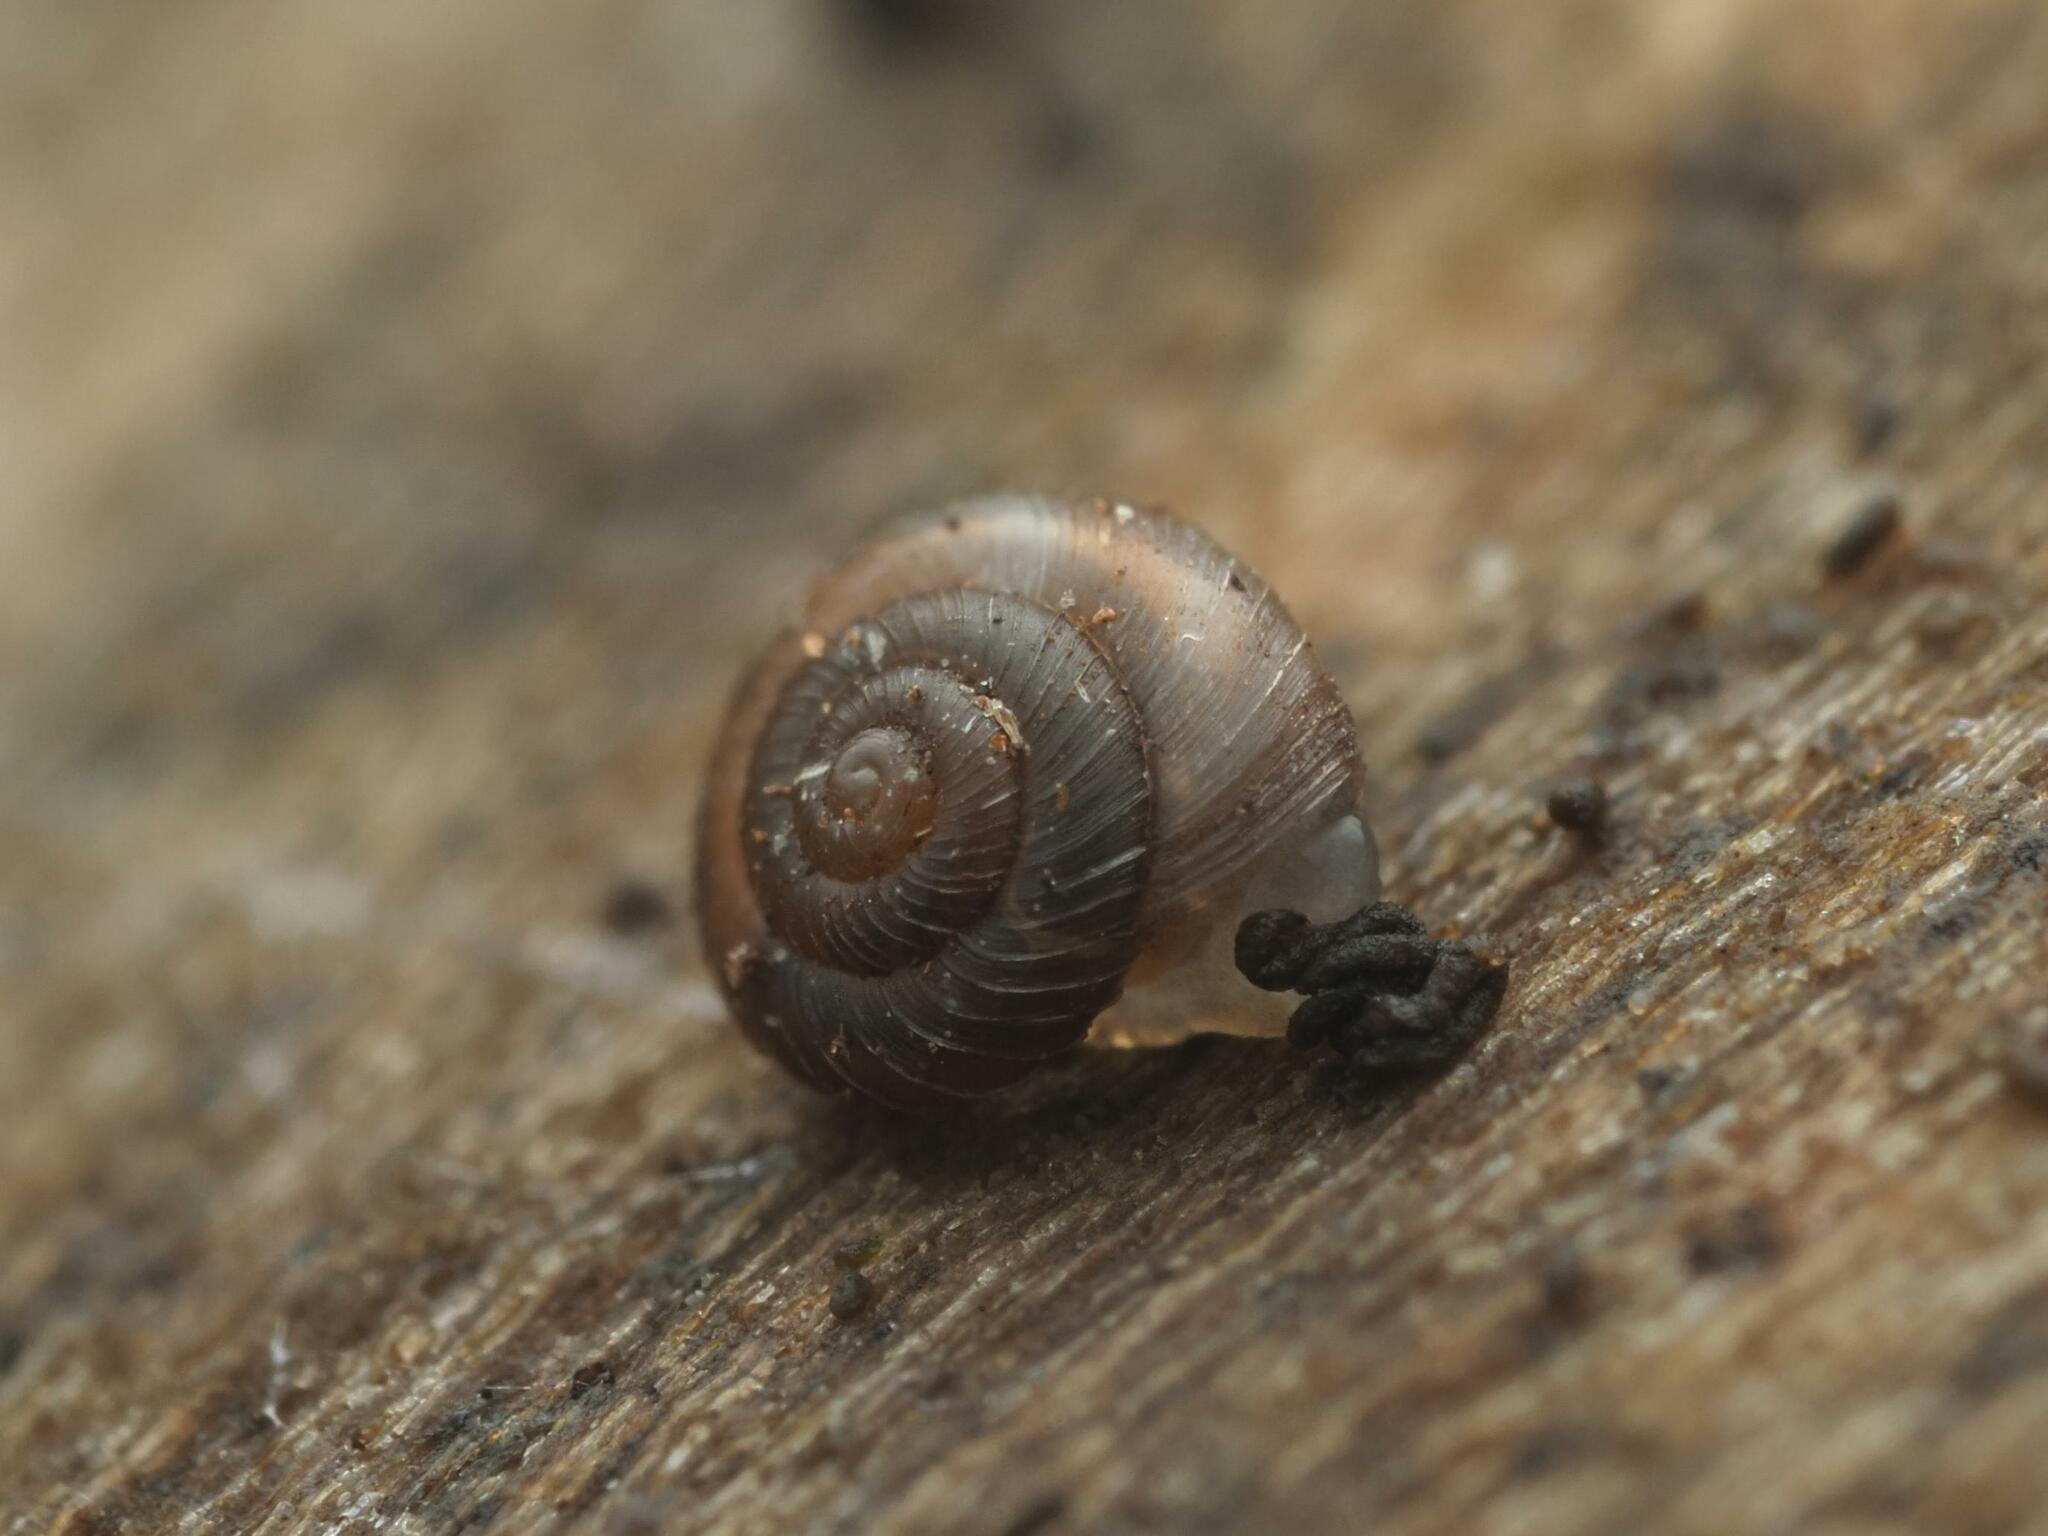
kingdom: Animalia
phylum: Mollusca
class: Gastropoda
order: Stylommatophora
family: Punctidae
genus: Paralaoma
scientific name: Paralaoma servilis
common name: Pinhead spot
